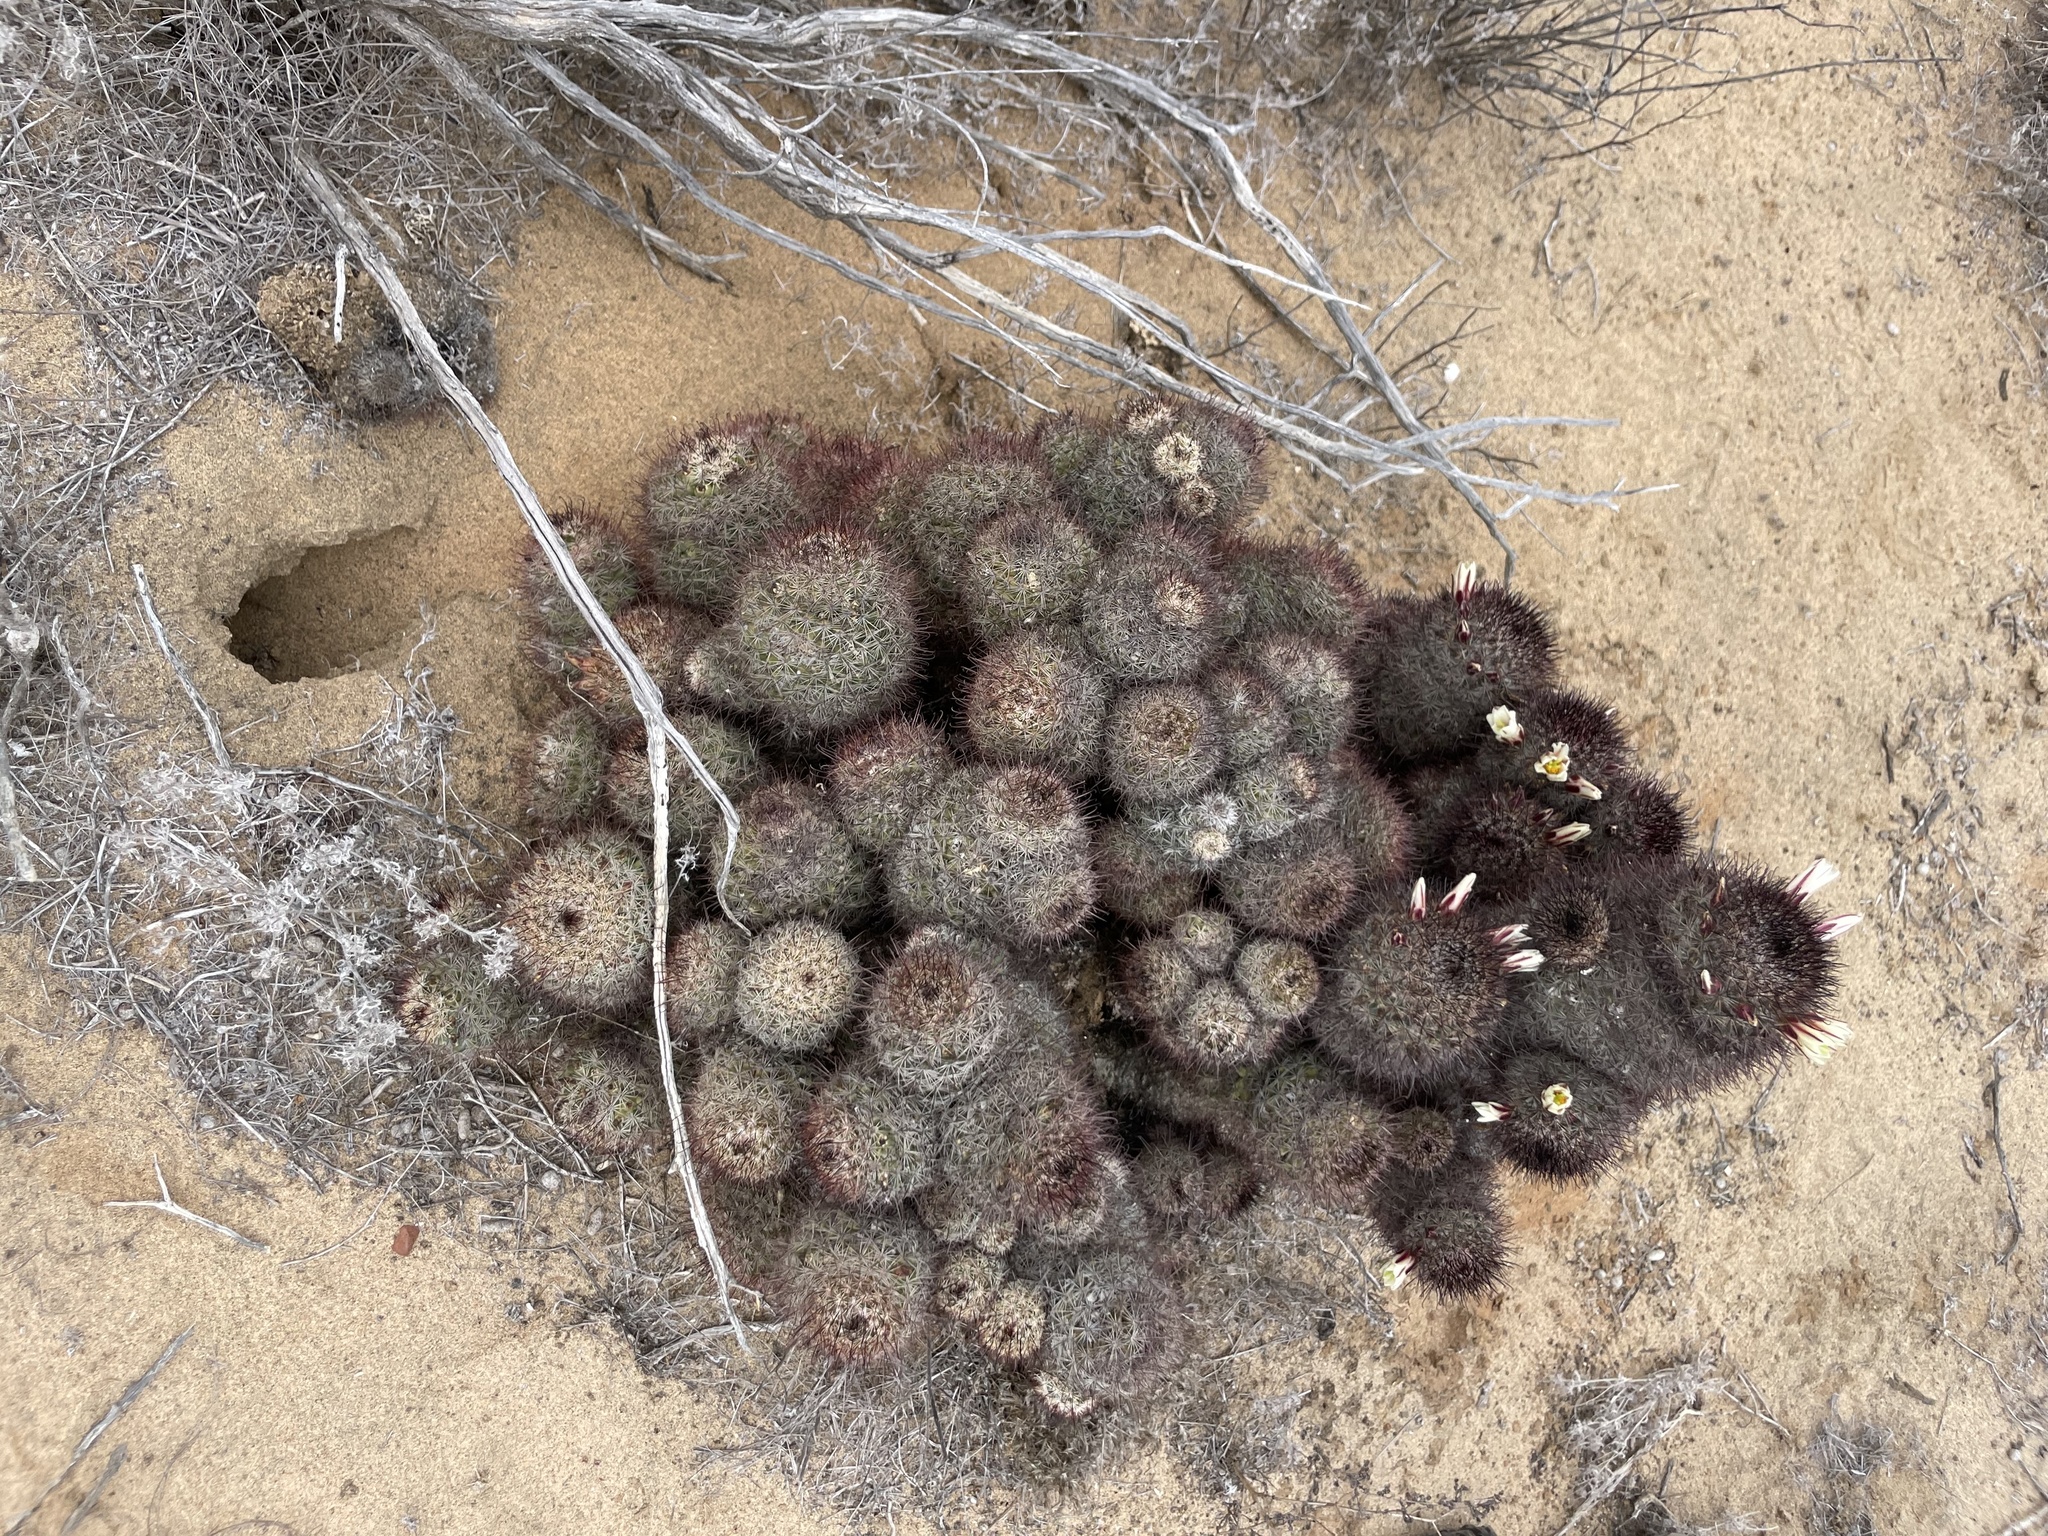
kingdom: Plantae
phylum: Tracheophyta
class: Magnoliopsida
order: Caryophyllales
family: Cactaceae
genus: Cochemiea
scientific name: Cochemiea dioica
